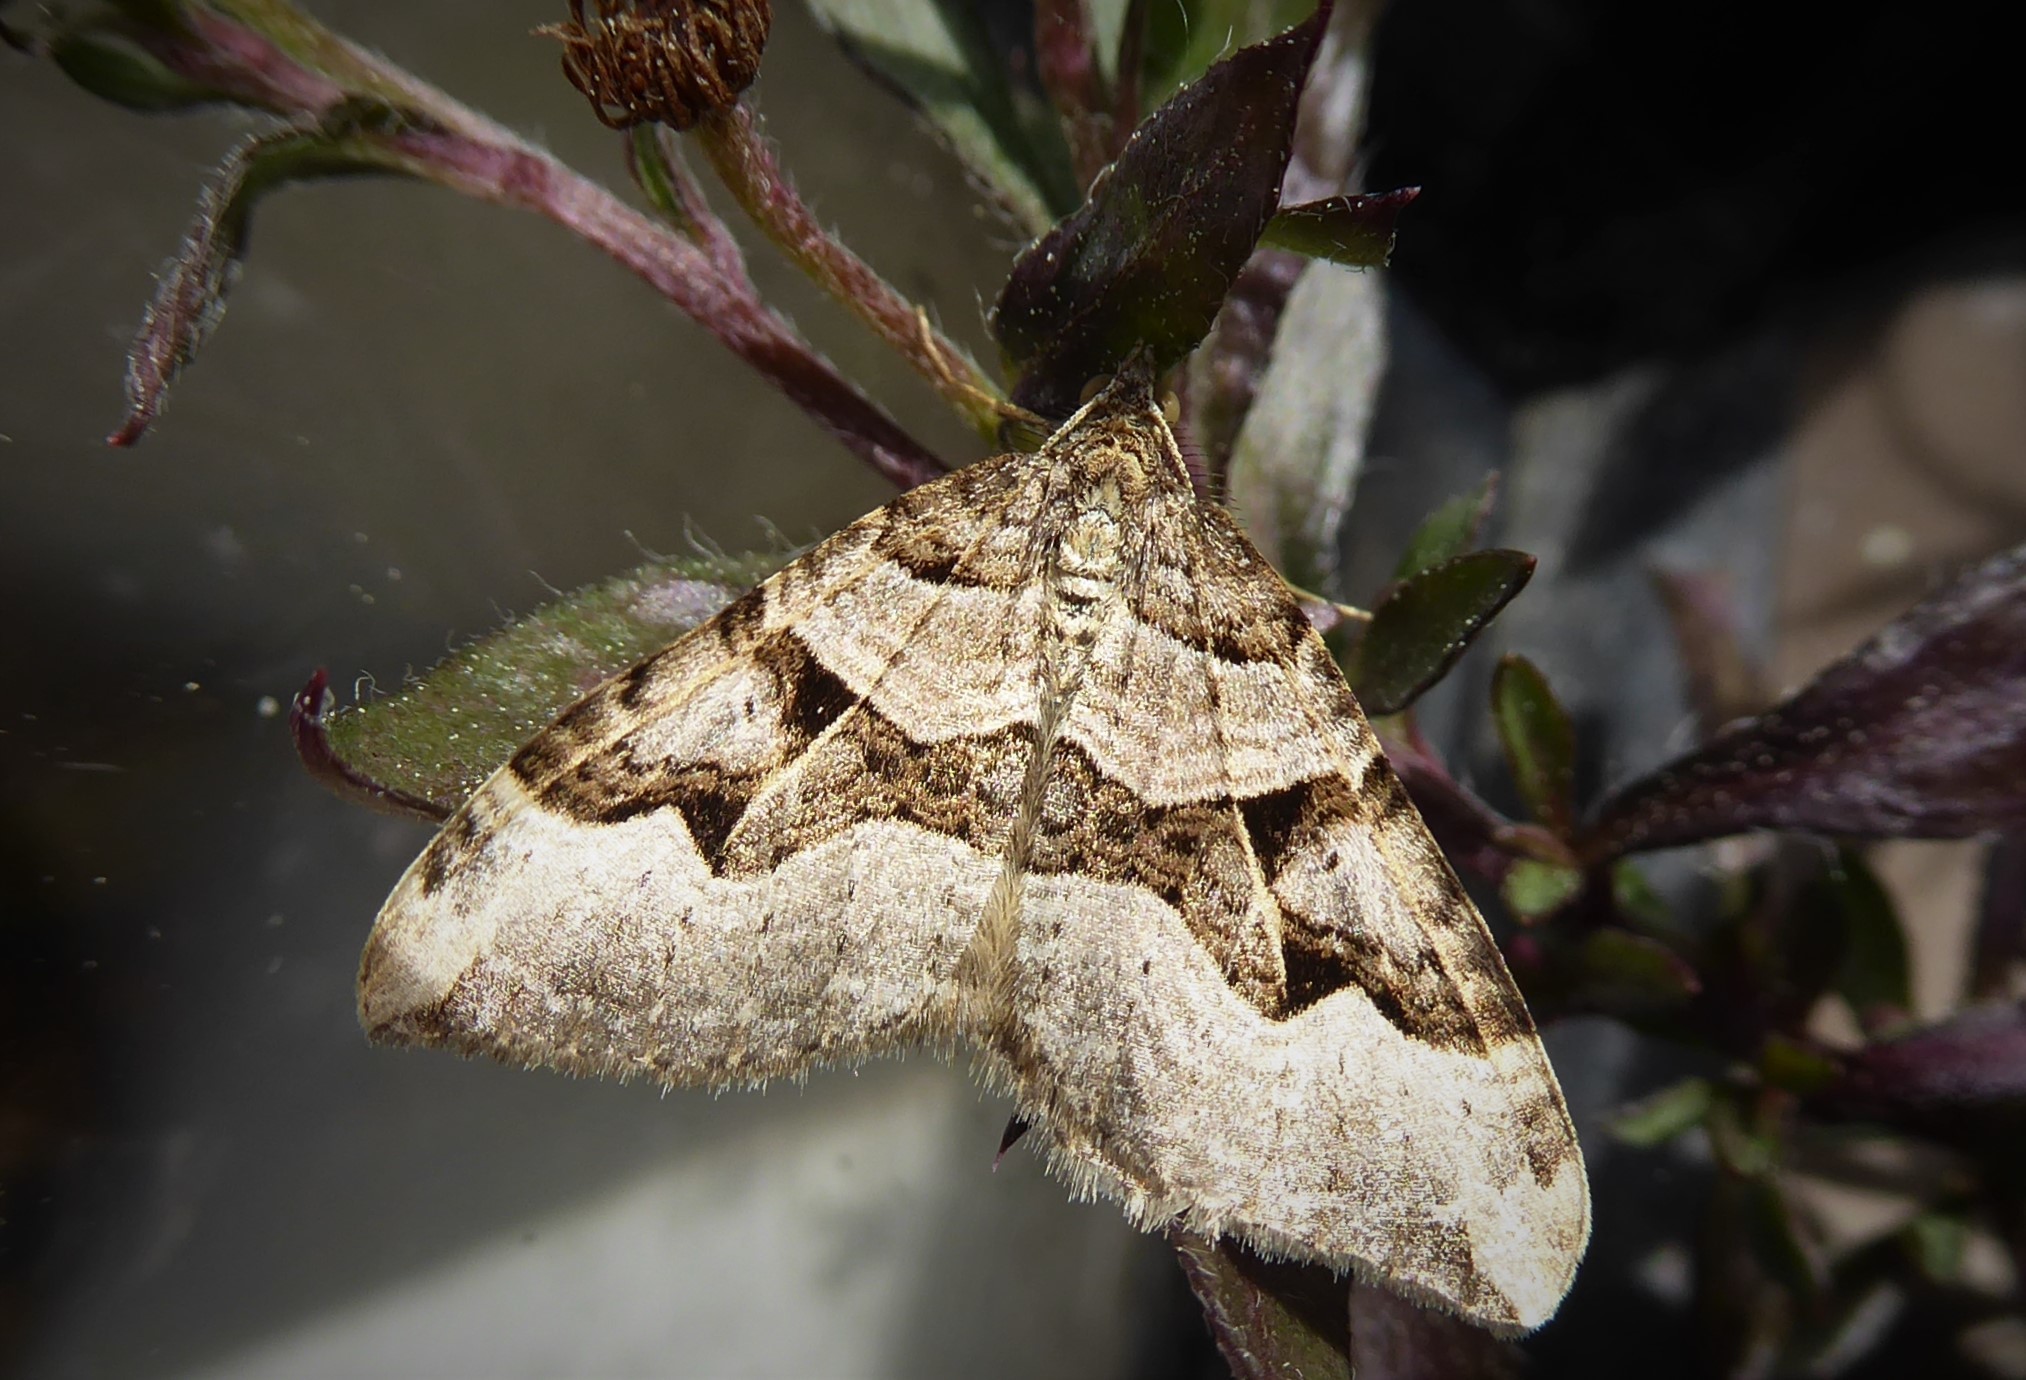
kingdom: Animalia
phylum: Arthropoda
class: Insecta
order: Lepidoptera
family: Geometridae
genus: Xanthorhoe
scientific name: Xanthorhoe semifissata
